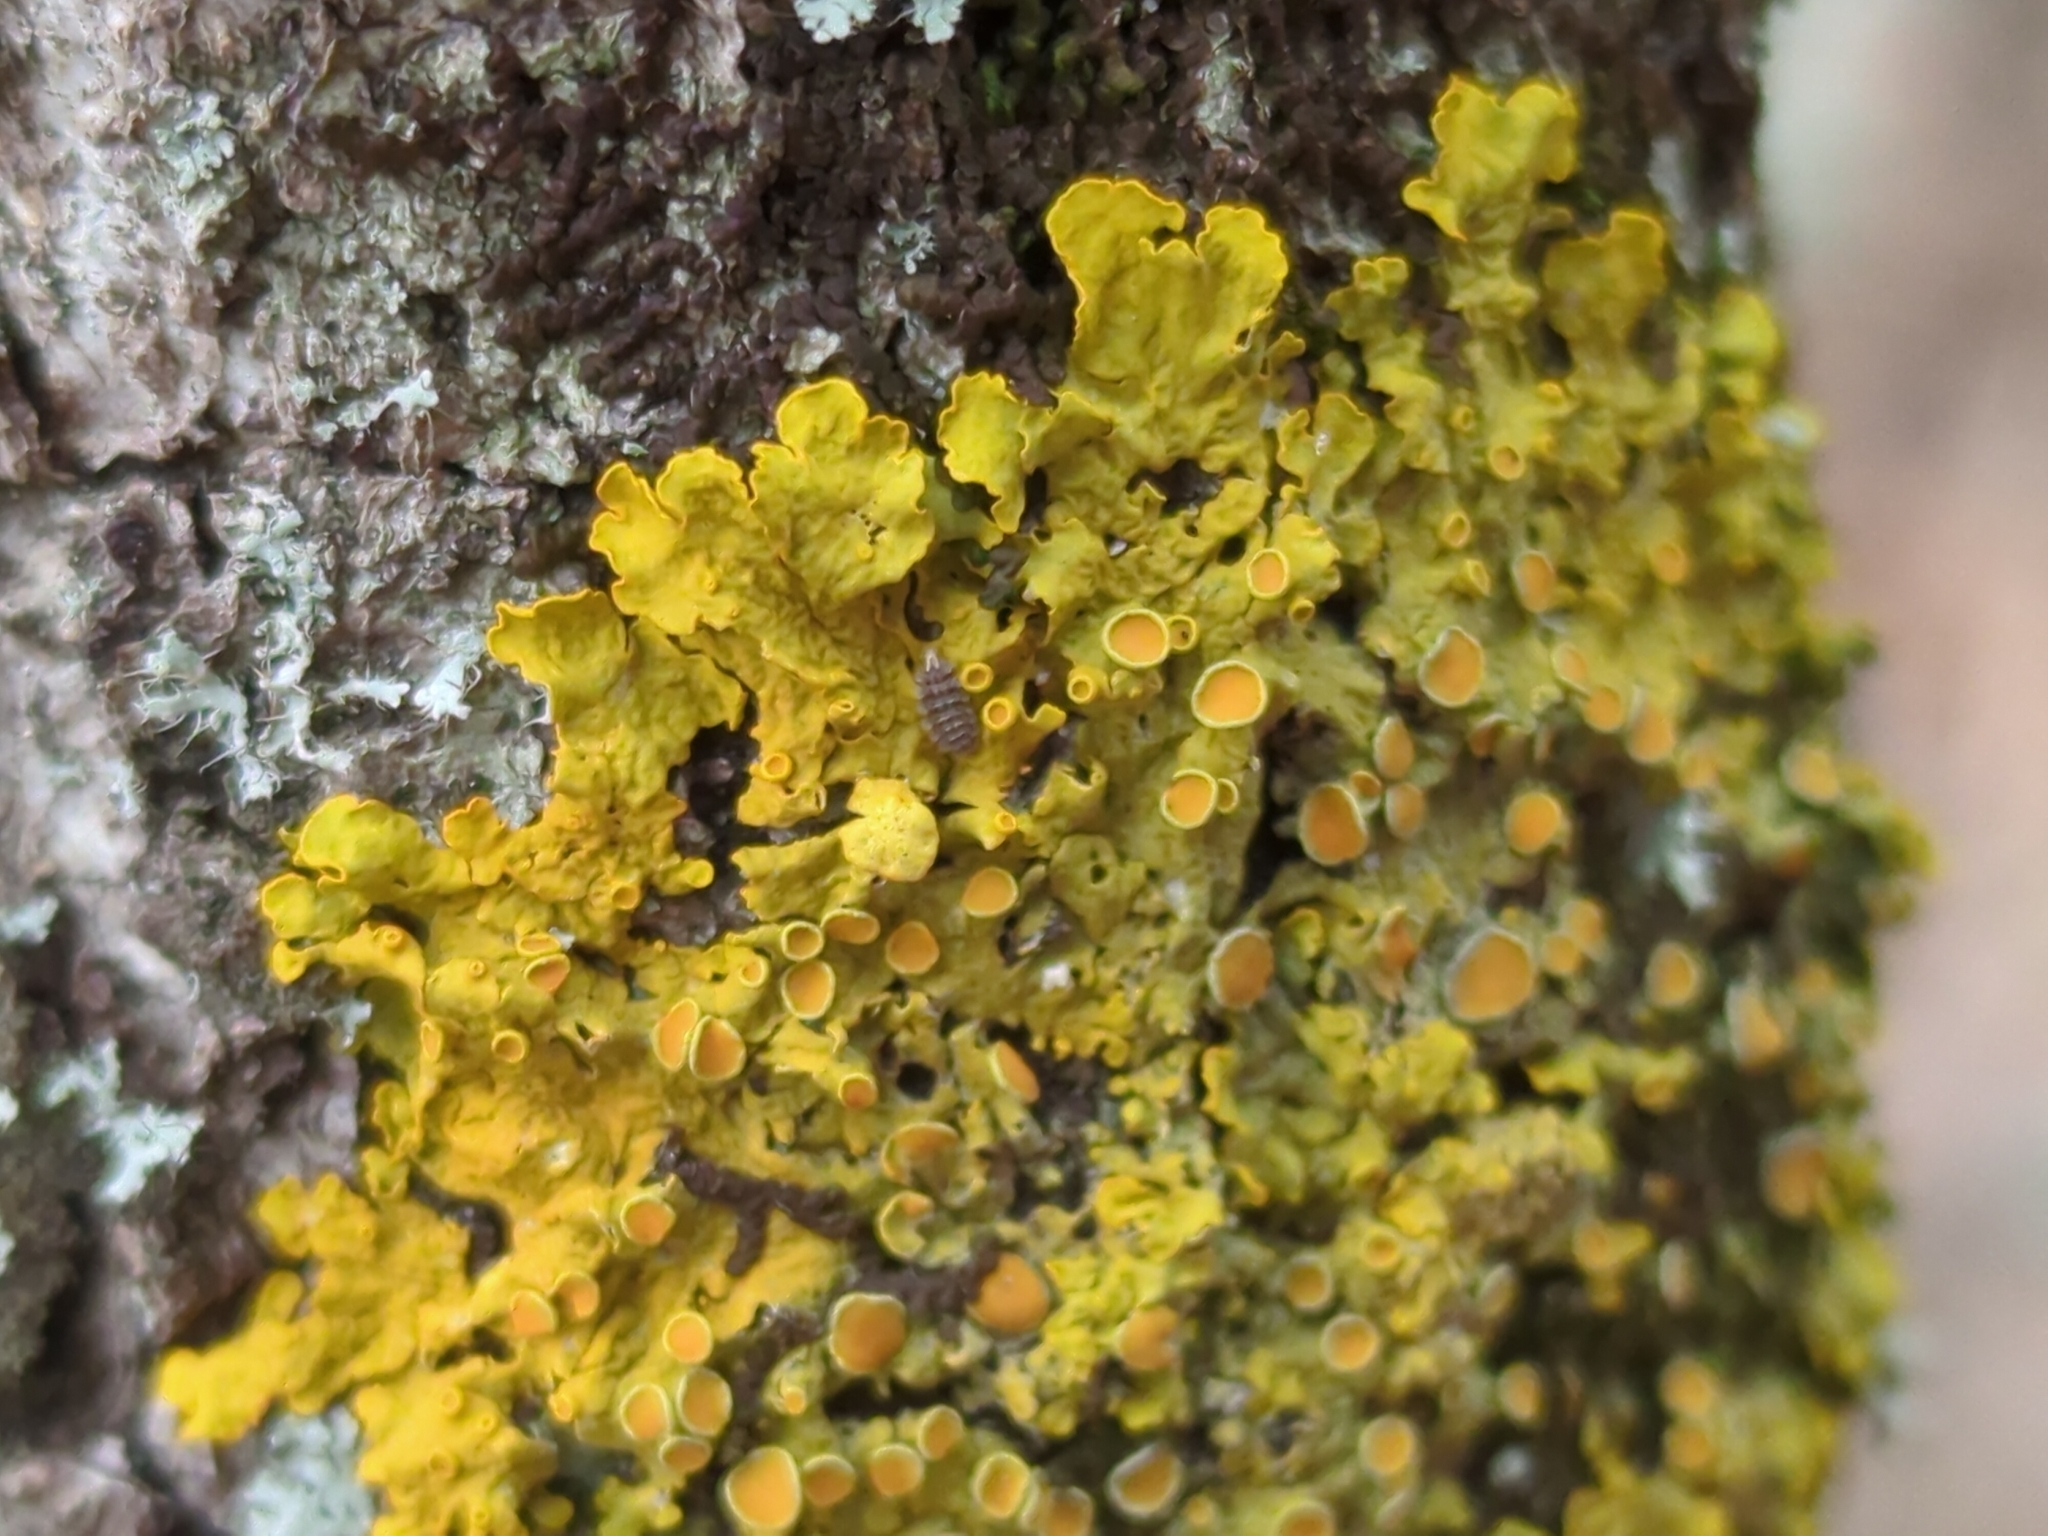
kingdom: Fungi
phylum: Ascomycota
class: Lecanoromycetes
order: Teloschistales
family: Teloschistaceae
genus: Xanthoria
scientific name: Xanthoria parietina
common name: Common orange lichen
